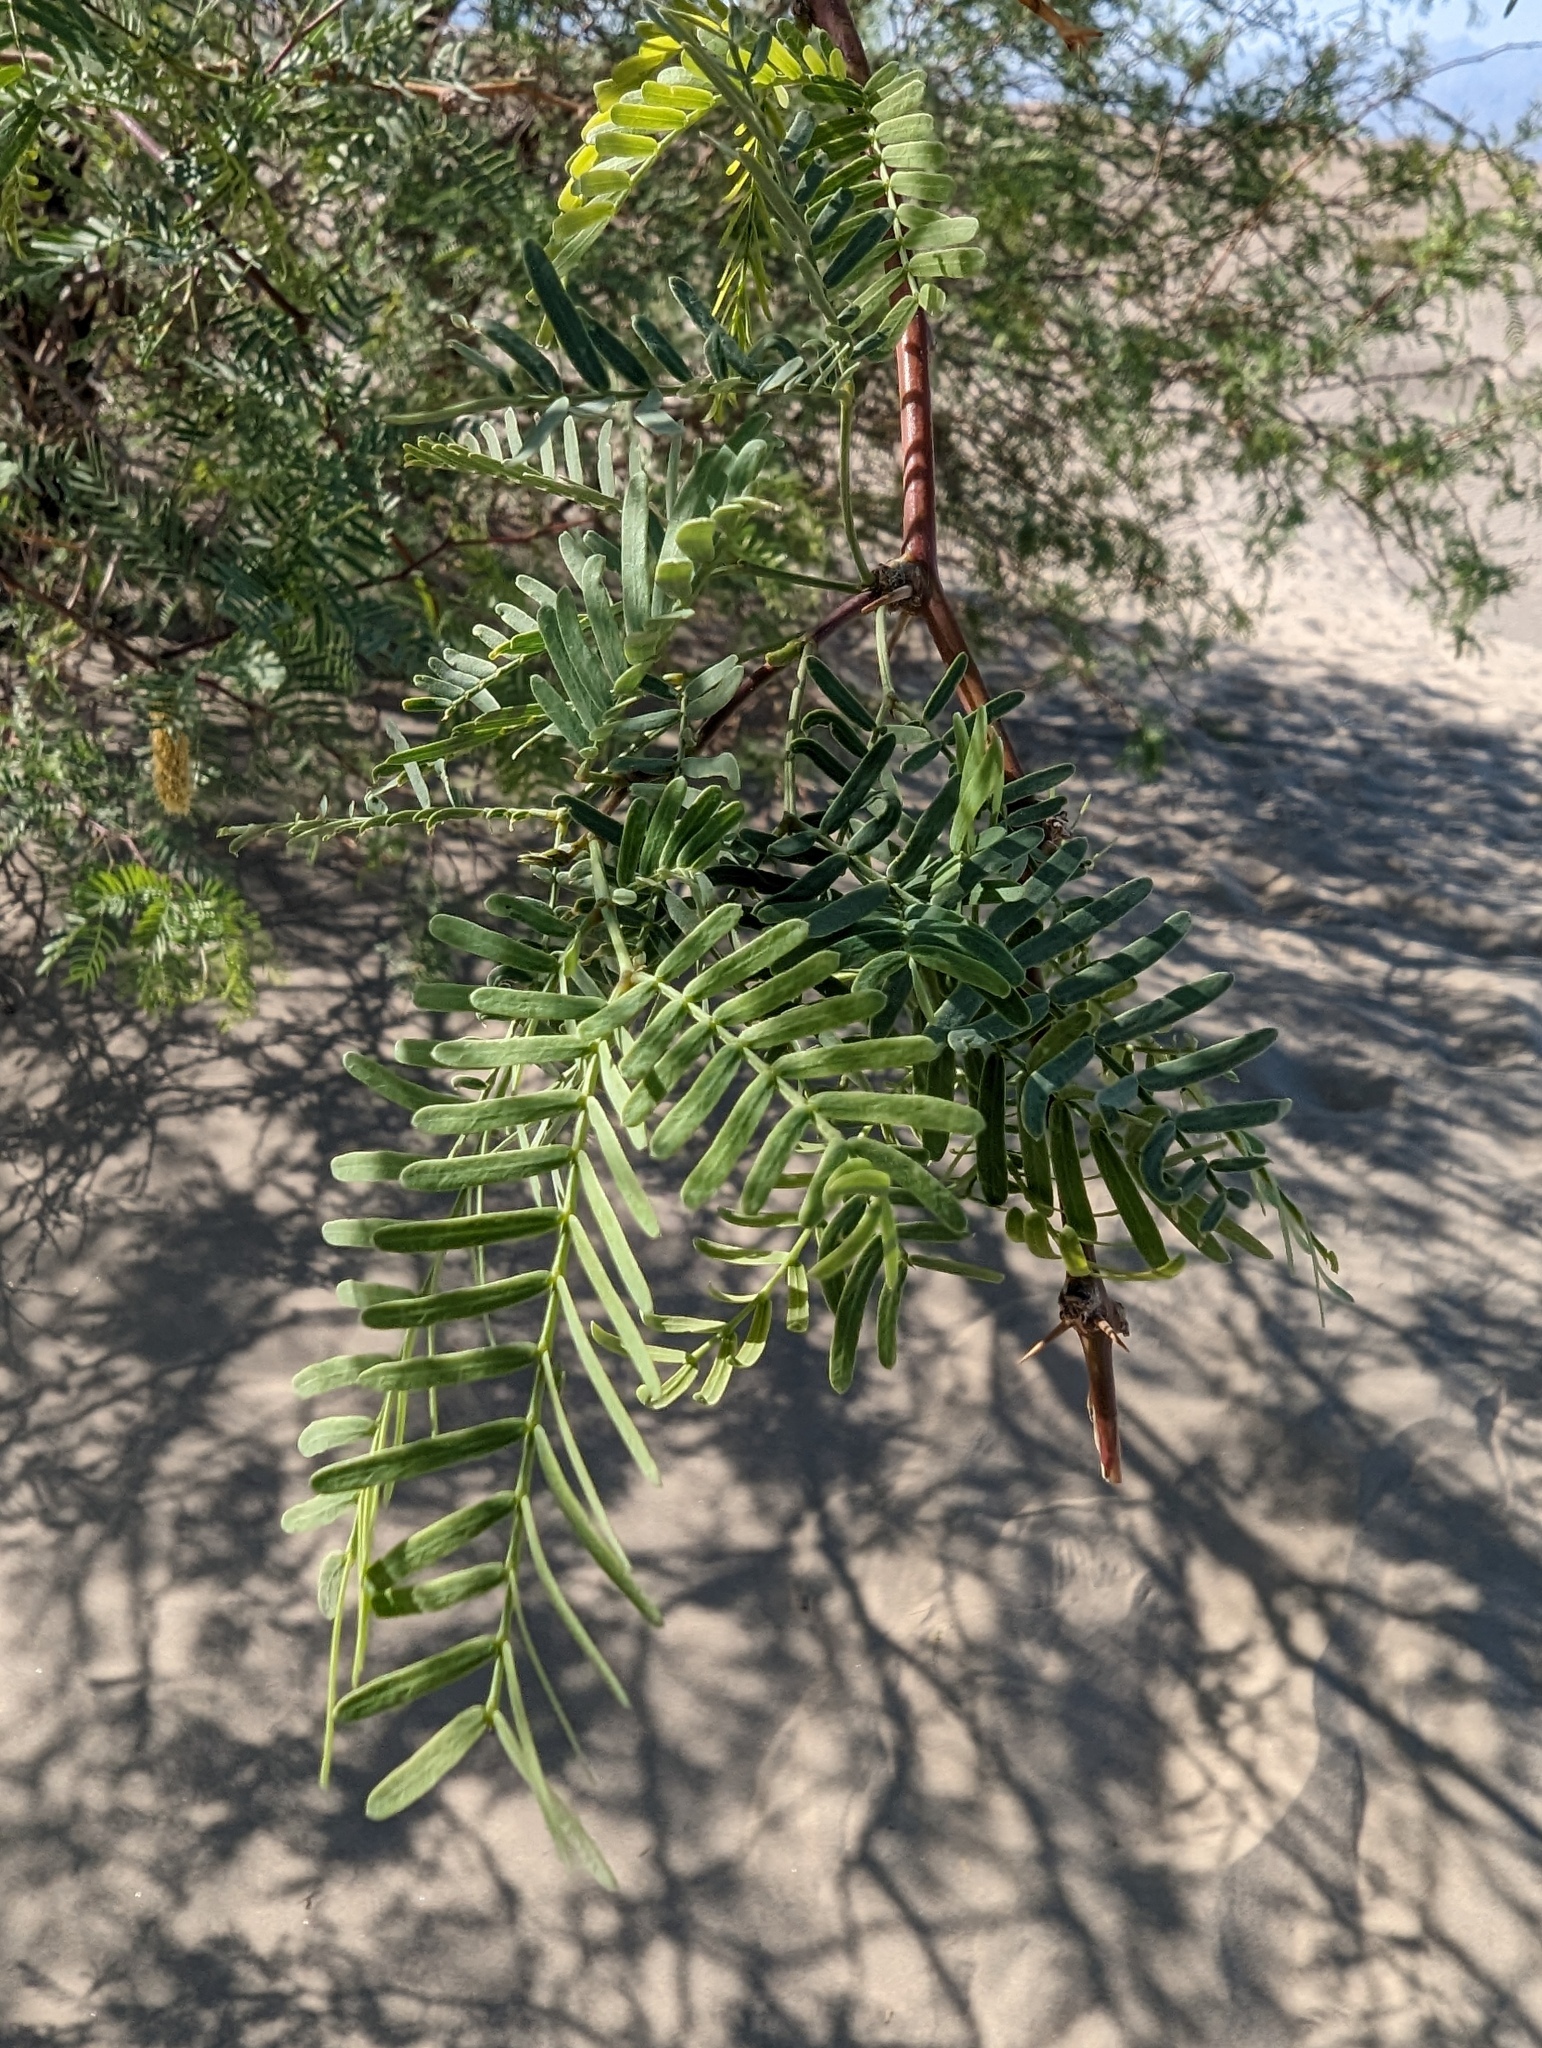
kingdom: Plantae
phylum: Tracheophyta
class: Magnoliopsida
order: Fabales
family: Fabaceae
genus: Prosopis
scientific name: Prosopis glandulosa
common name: Honey mesquite
